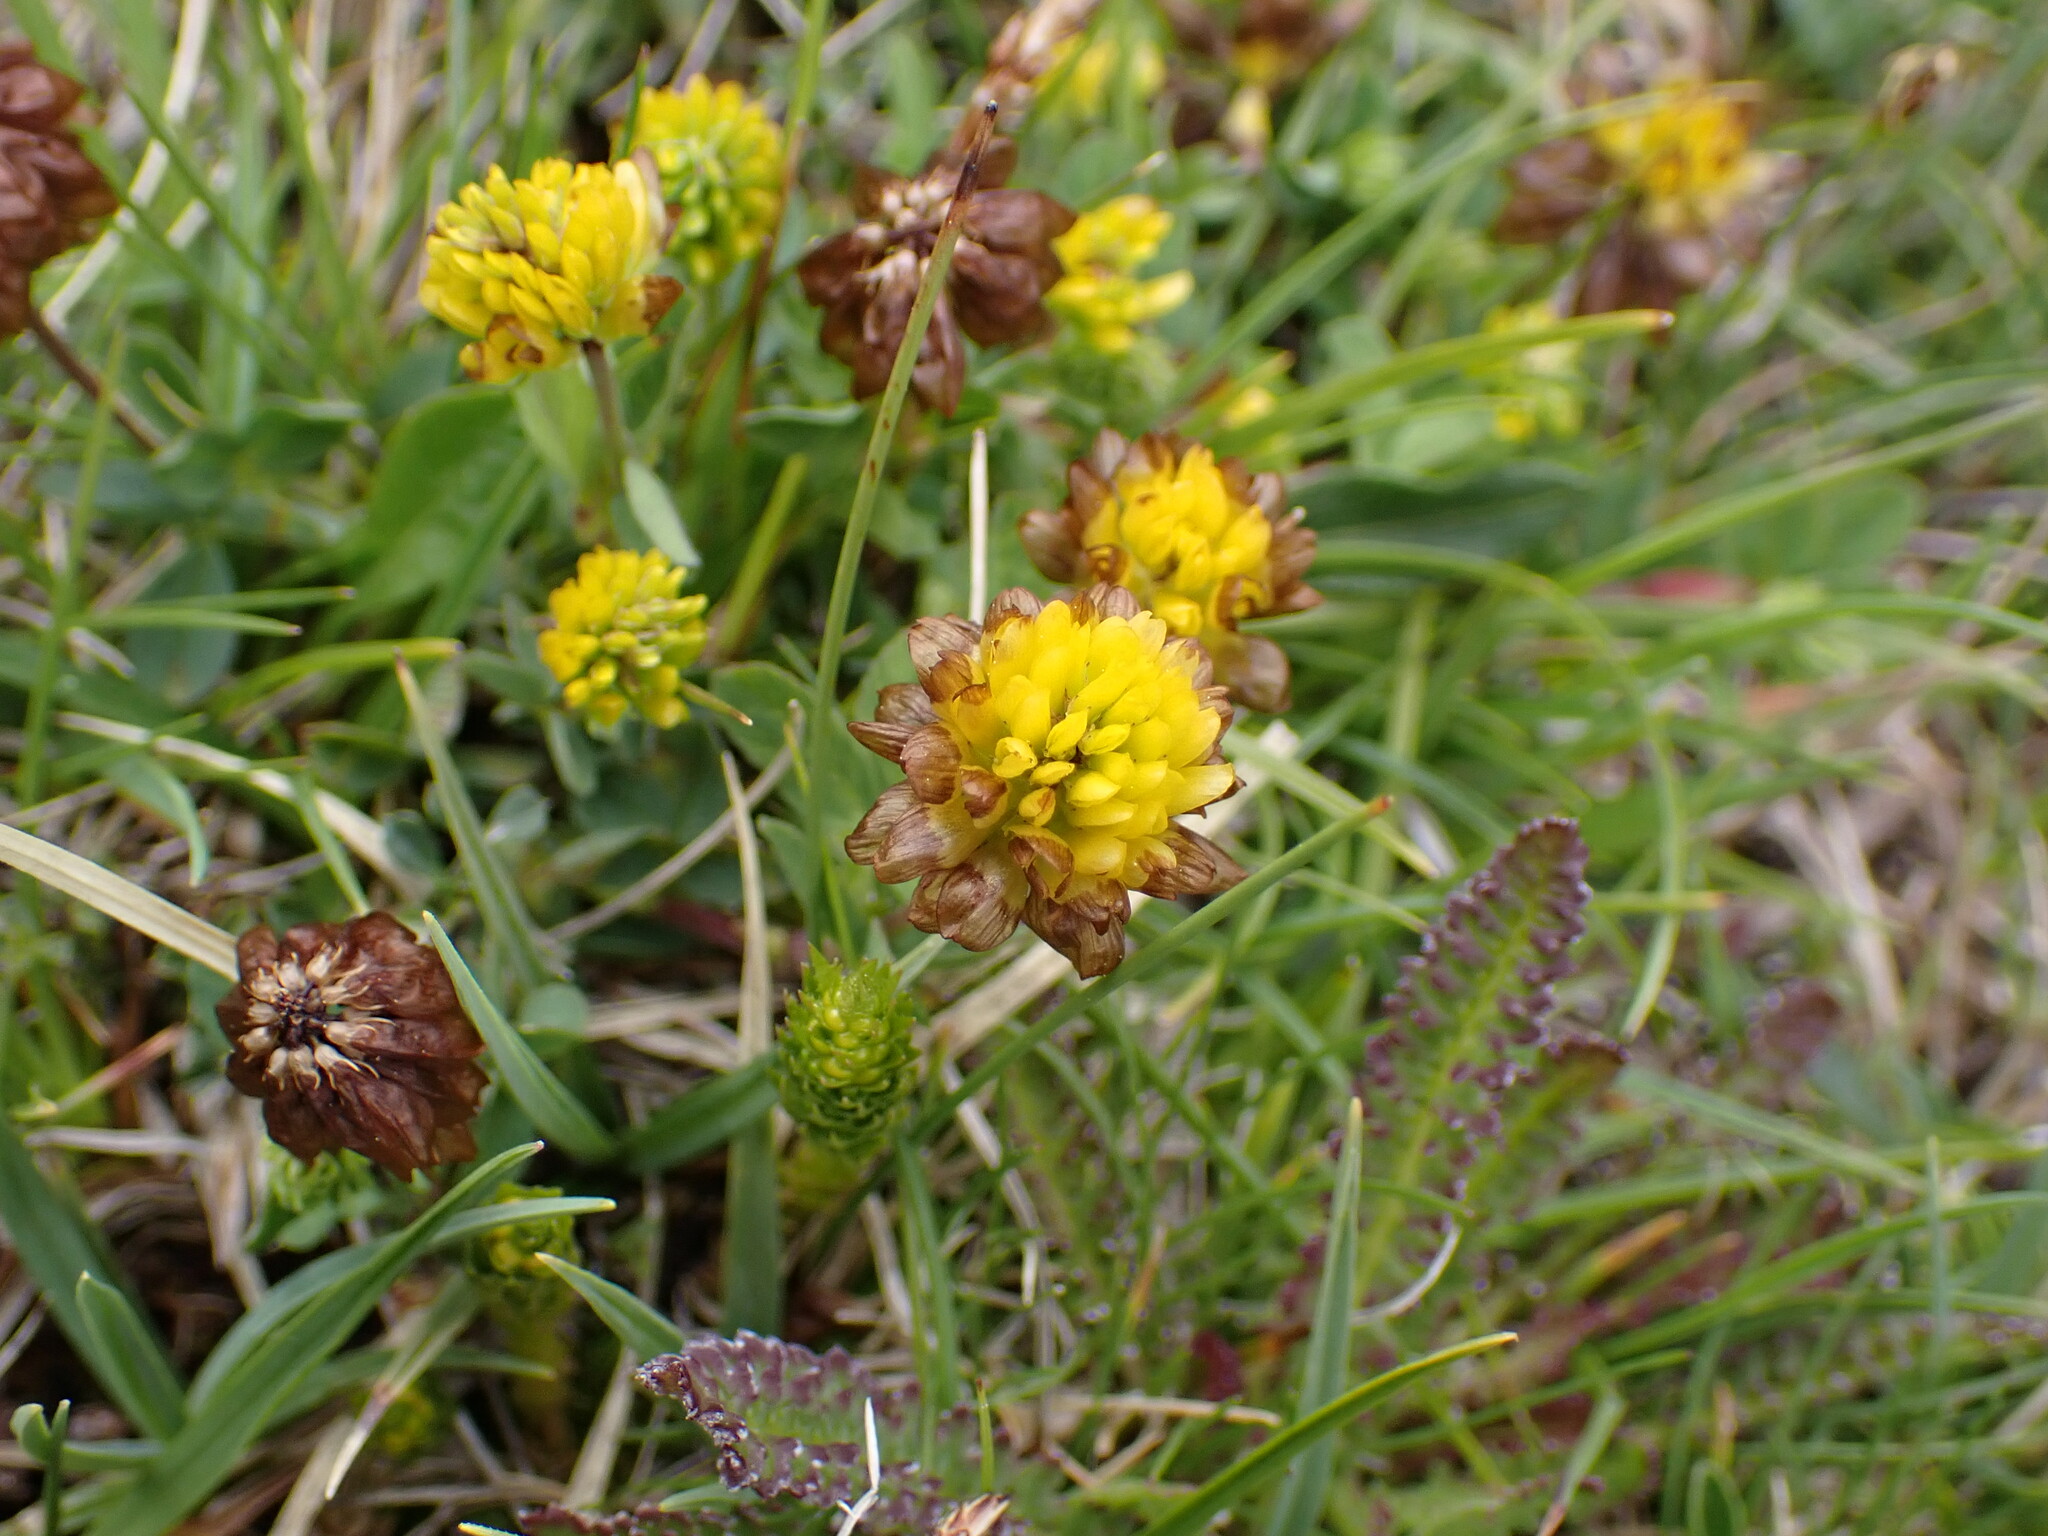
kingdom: Plantae
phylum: Tracheophyta
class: Magnoliopsida
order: Fabales
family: Fabaceae
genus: Trifolium
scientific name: Trifolium badium
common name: Brown clover
